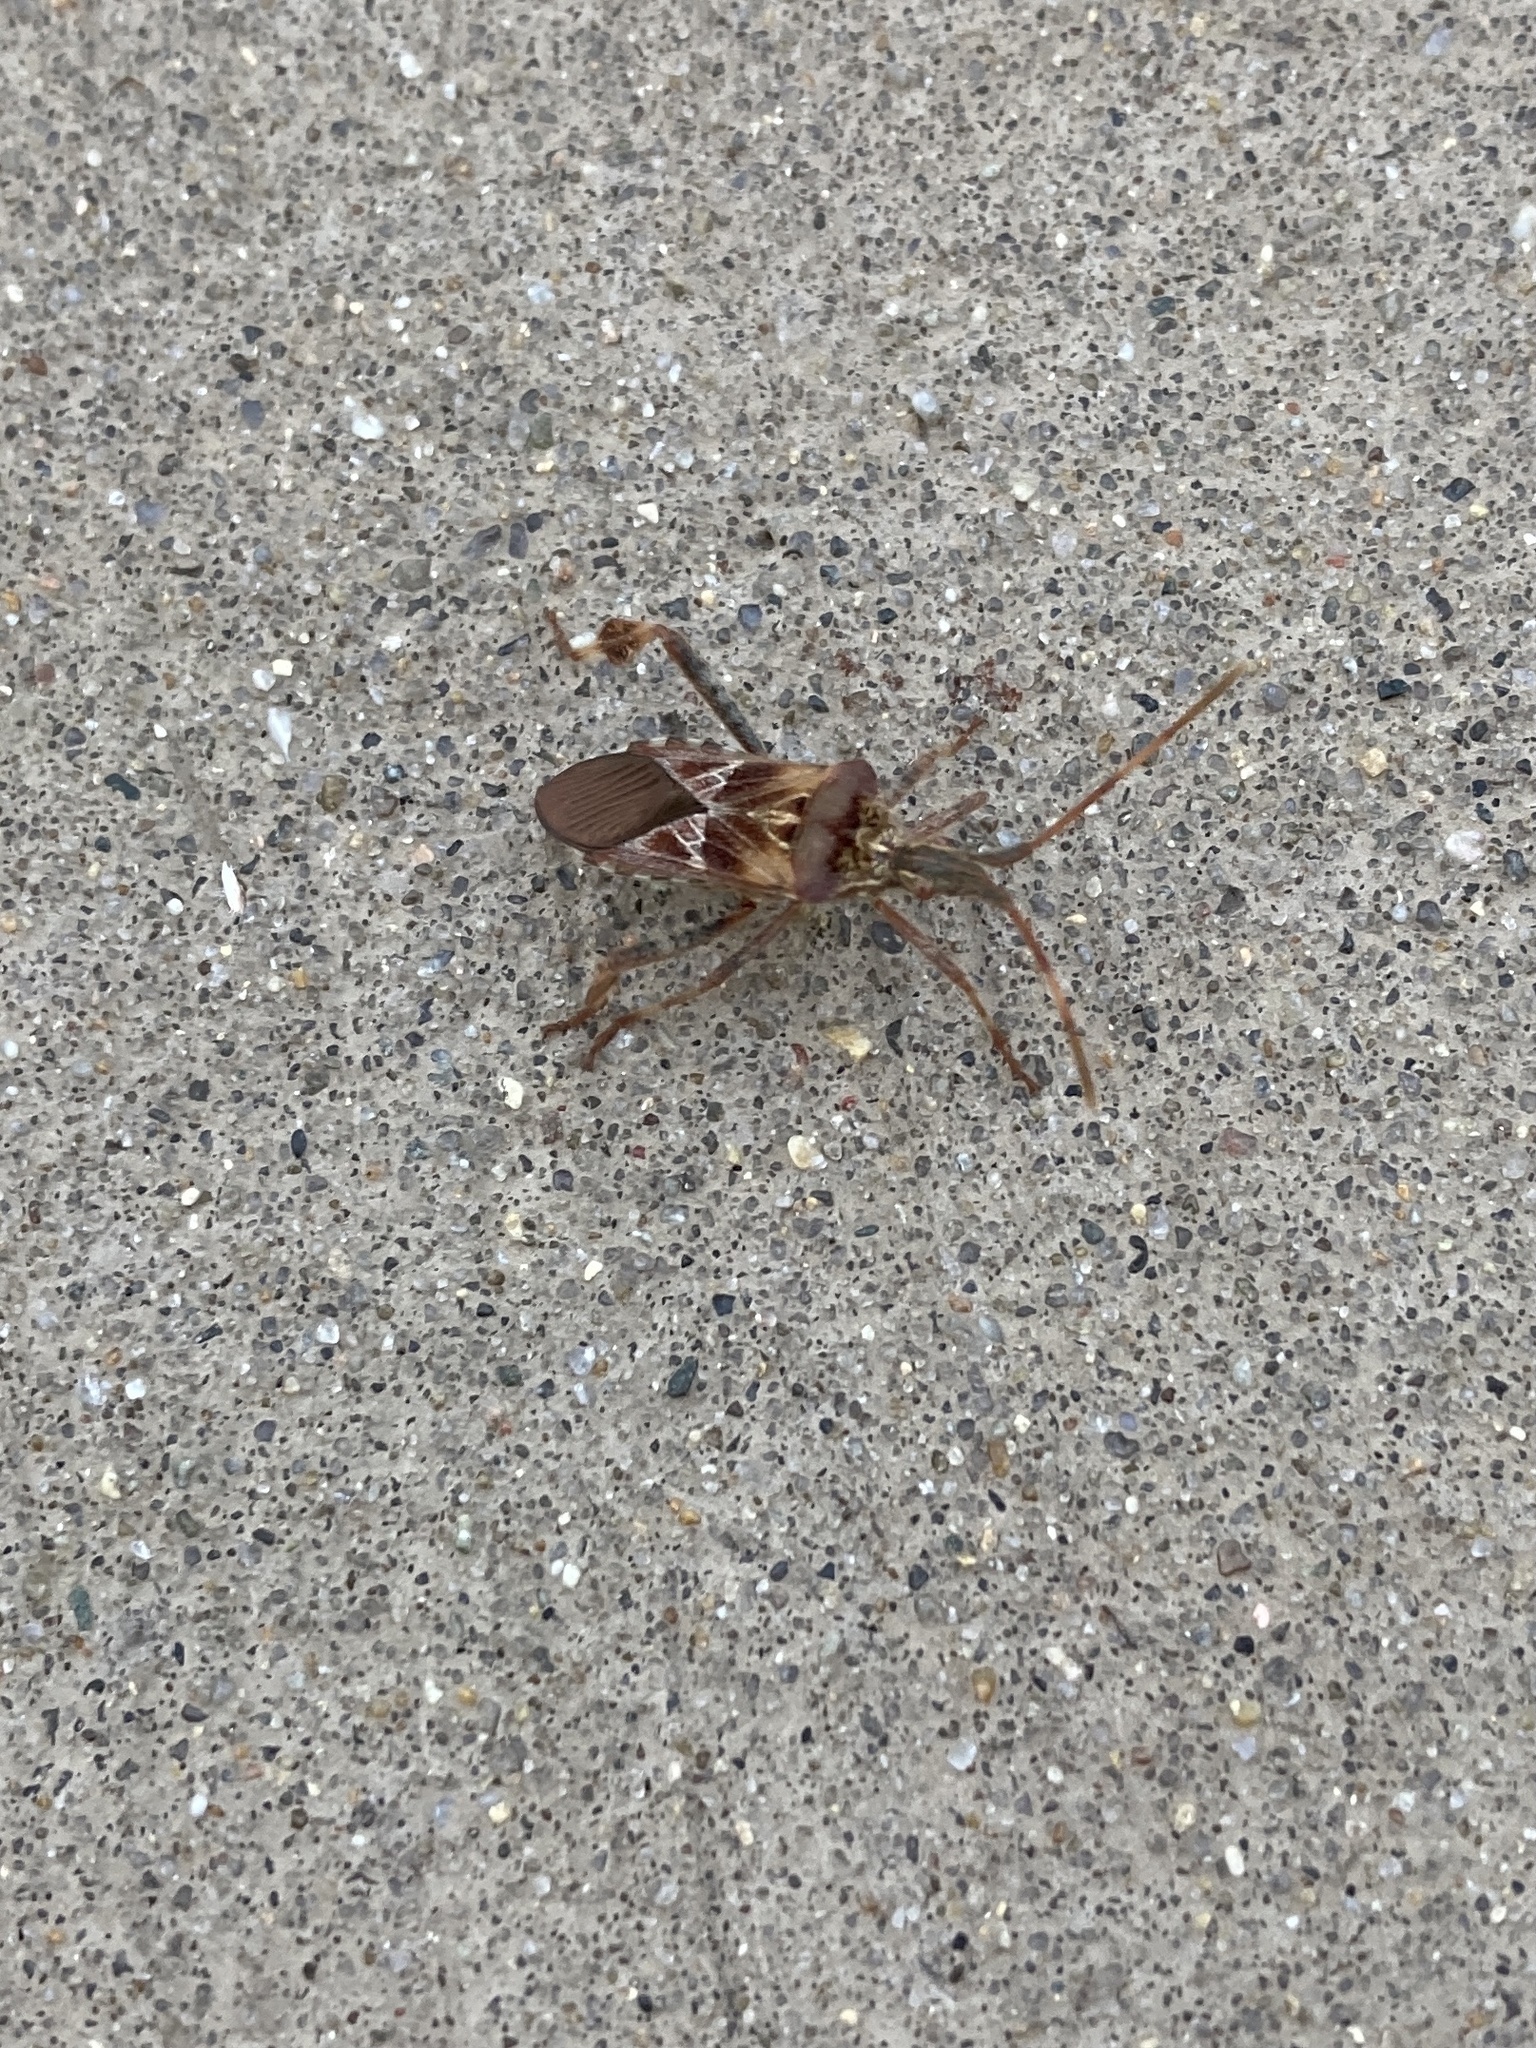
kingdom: Animalia
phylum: Arthropoda
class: Insecta
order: Hemiptera
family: Coreidae
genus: Leptoglossus
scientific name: Leptoglossus occidentalis
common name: Western conifer-seed bug
